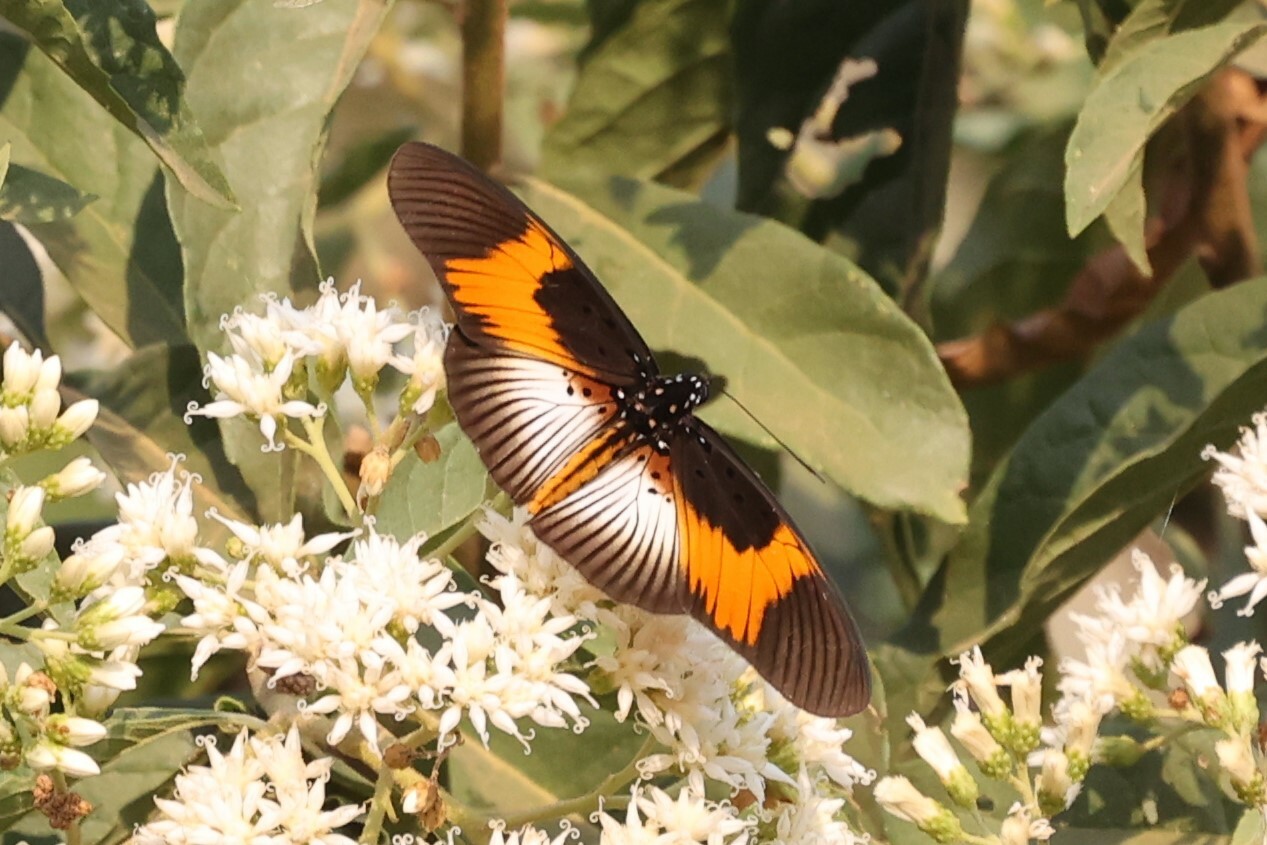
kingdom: Animalia
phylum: Arthropoda
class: Insecta
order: Lepidoptera
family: Nymphalidae
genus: Chloropoea
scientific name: Chloropoea eurytus
